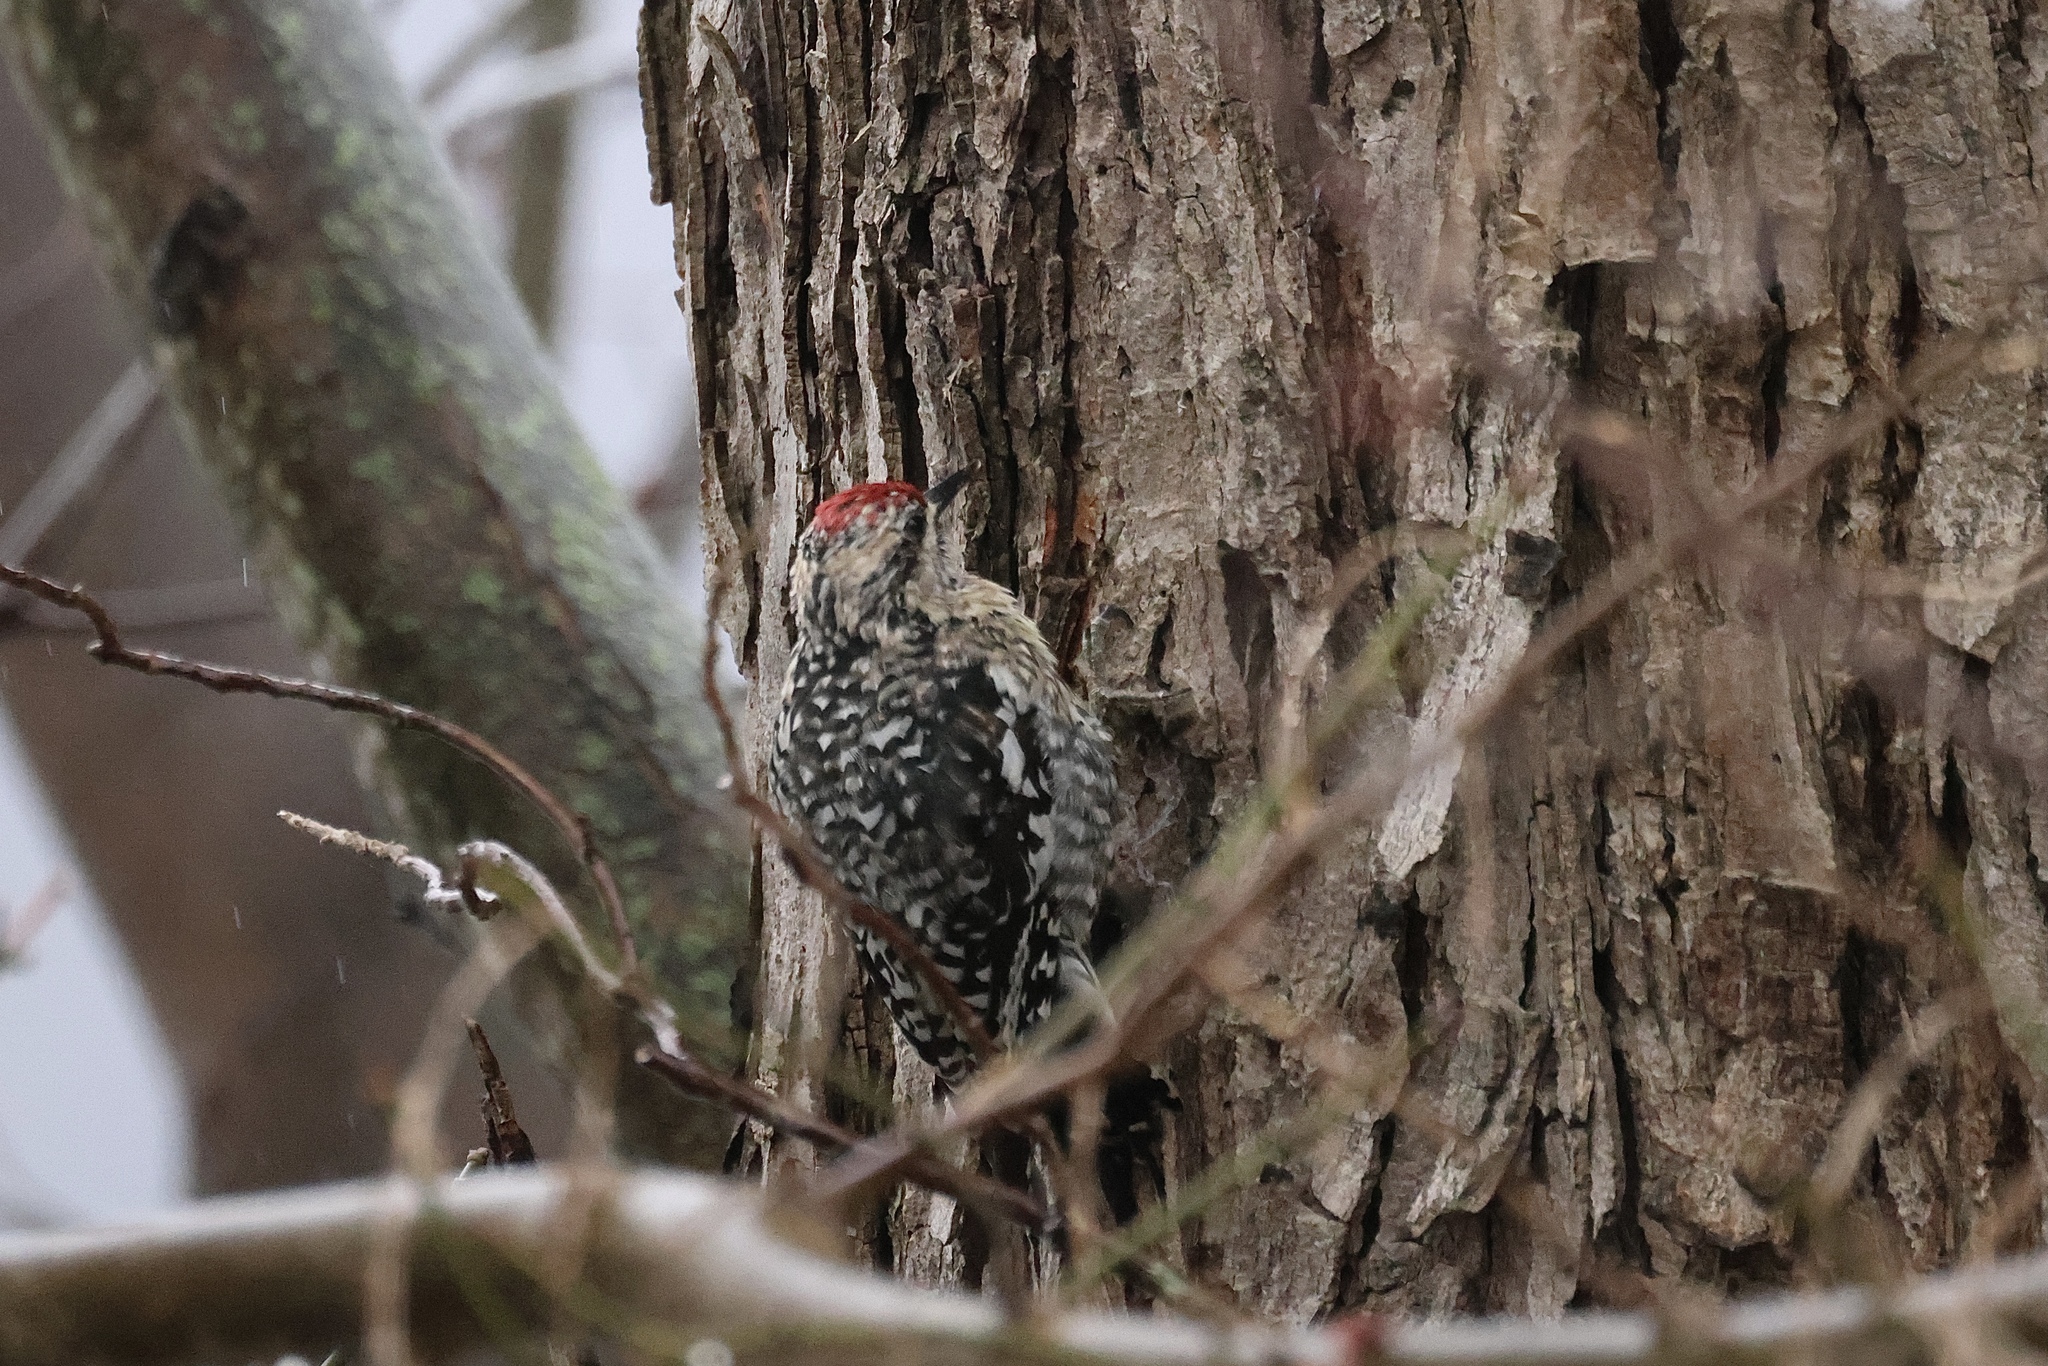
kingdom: Animalia
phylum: Chordata
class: Aves
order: Piciformes
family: Picidae
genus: Sphyrapicus
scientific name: Sphyrapicus varius
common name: Yellow-bellied sapsucker
